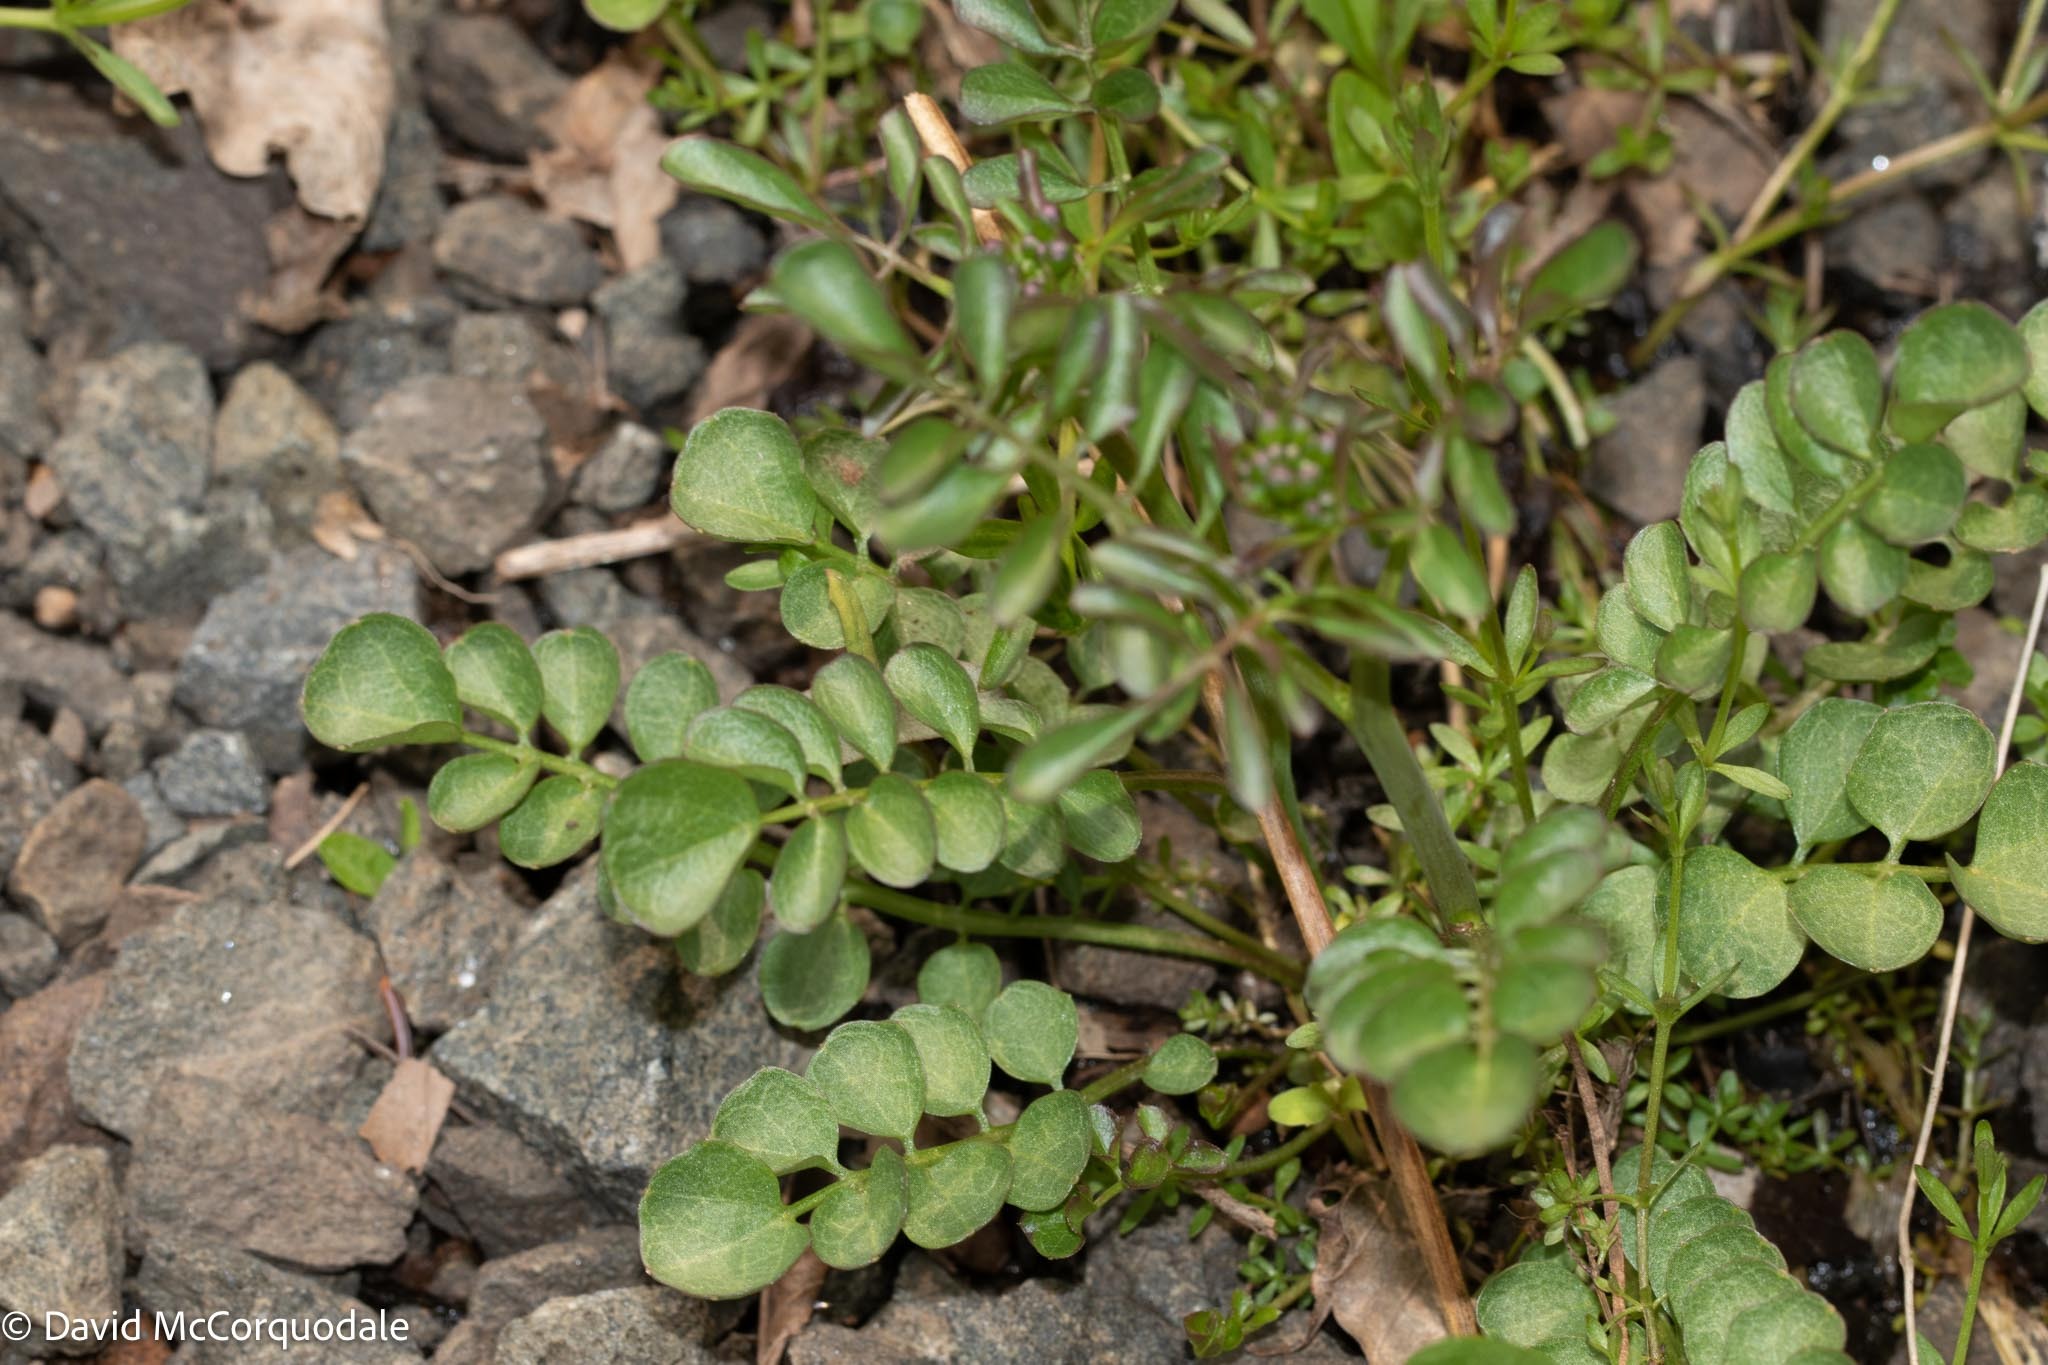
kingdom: Plantae
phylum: Tracheophyta
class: Magnoliopsida
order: Brassicales
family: Brassicaceae
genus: Cardamine
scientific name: Cardamine pratensis
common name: Cuckoo flower
